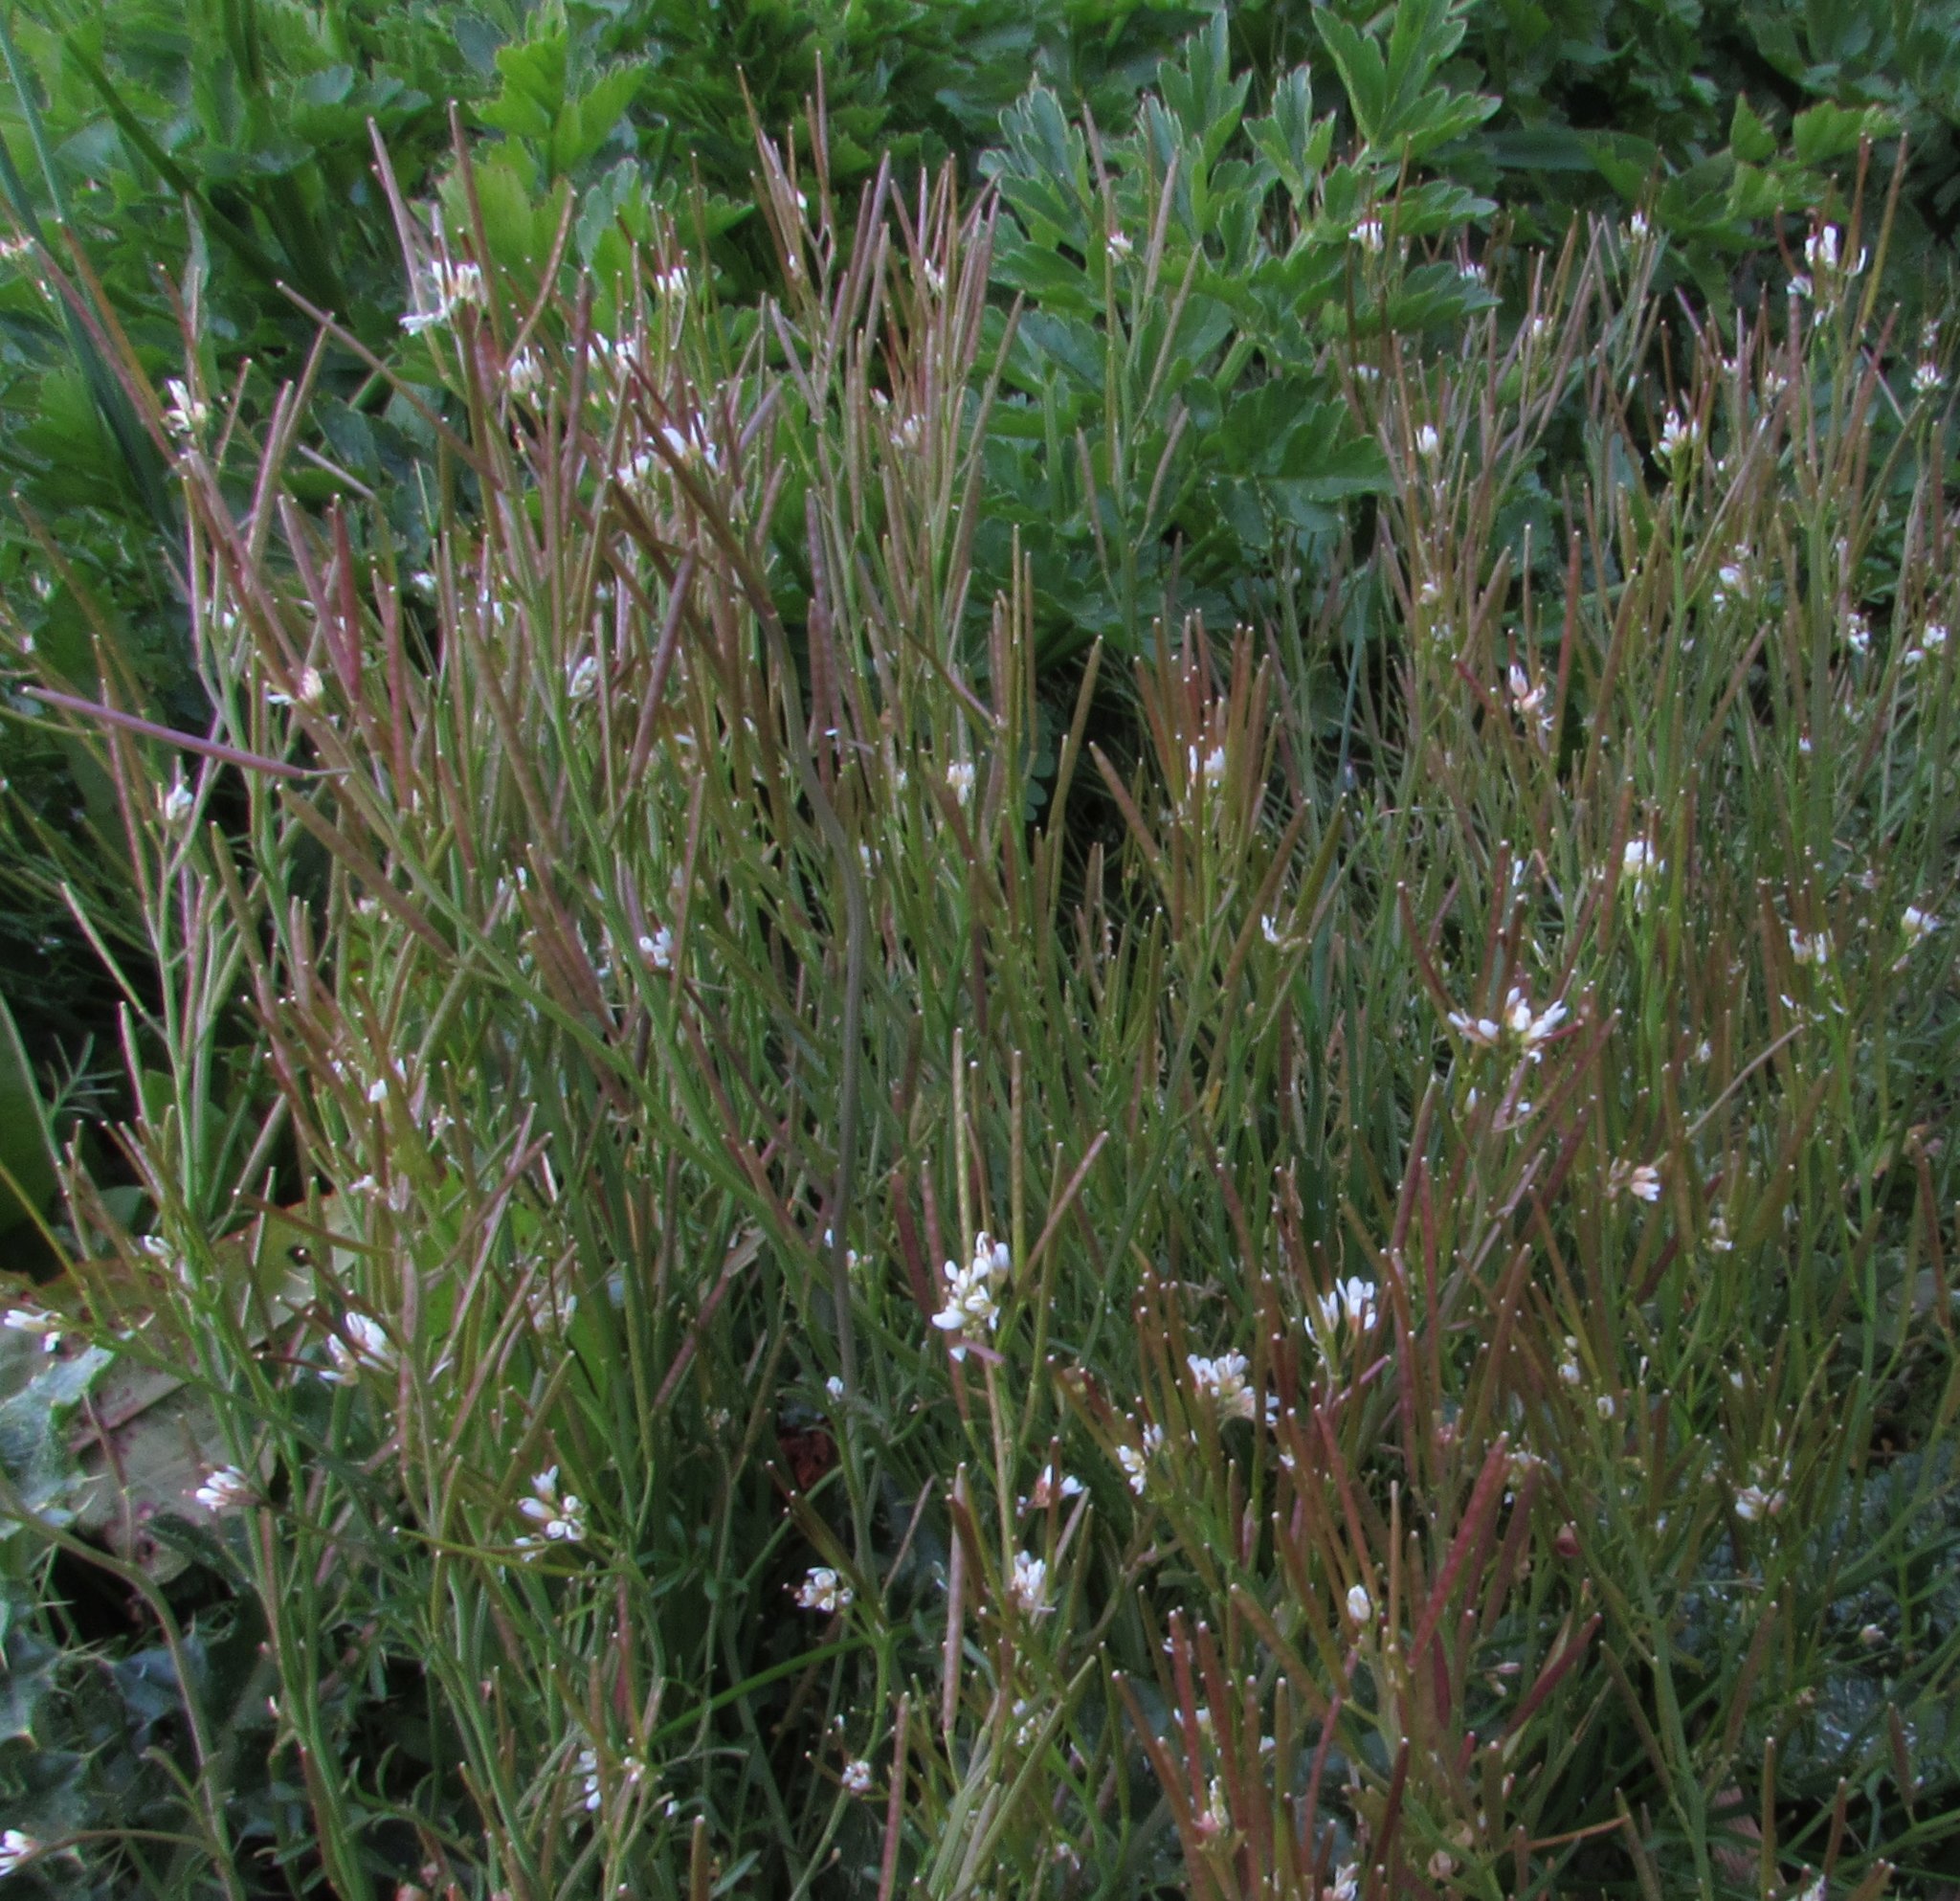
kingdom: Plantae
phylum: Tracheophyta
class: Magnoliopsida
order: Brassicales
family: Brassicaceae
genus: Cardamine
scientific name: Cardamine hirsuta
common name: Hairy bittercress
